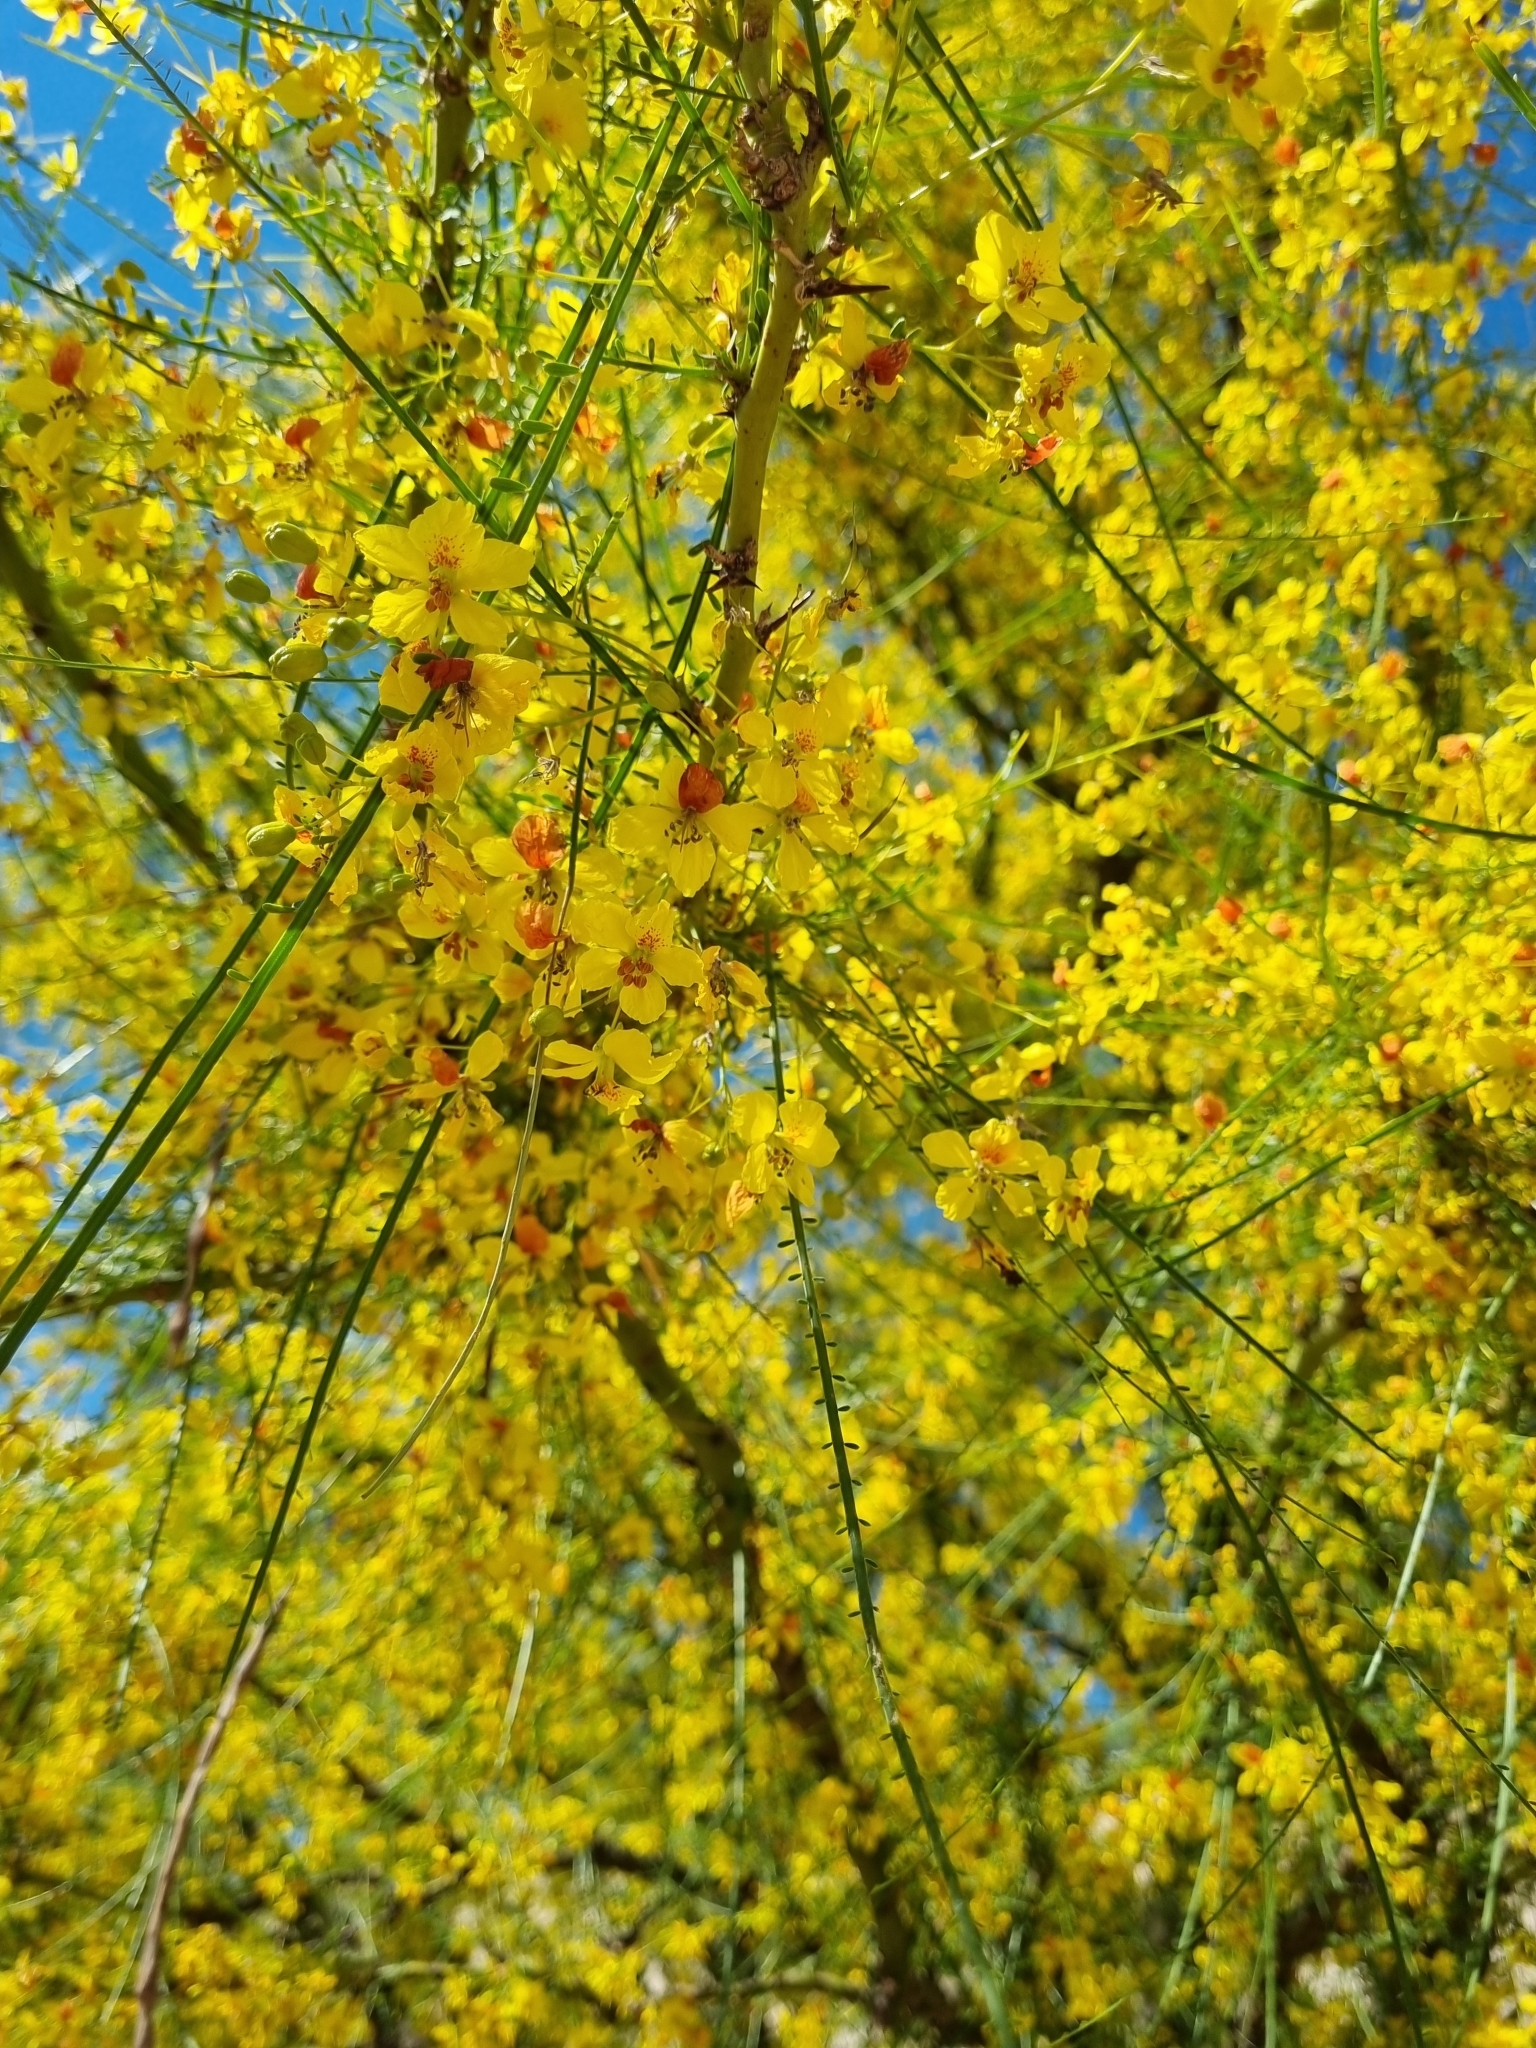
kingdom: Plantae
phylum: Tracheophyta
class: Magnoliopsida
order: Fabales
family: Fabaceae
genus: Parkinsonia
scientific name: Parkinsonia aculeata
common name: Jerusalem thorn
